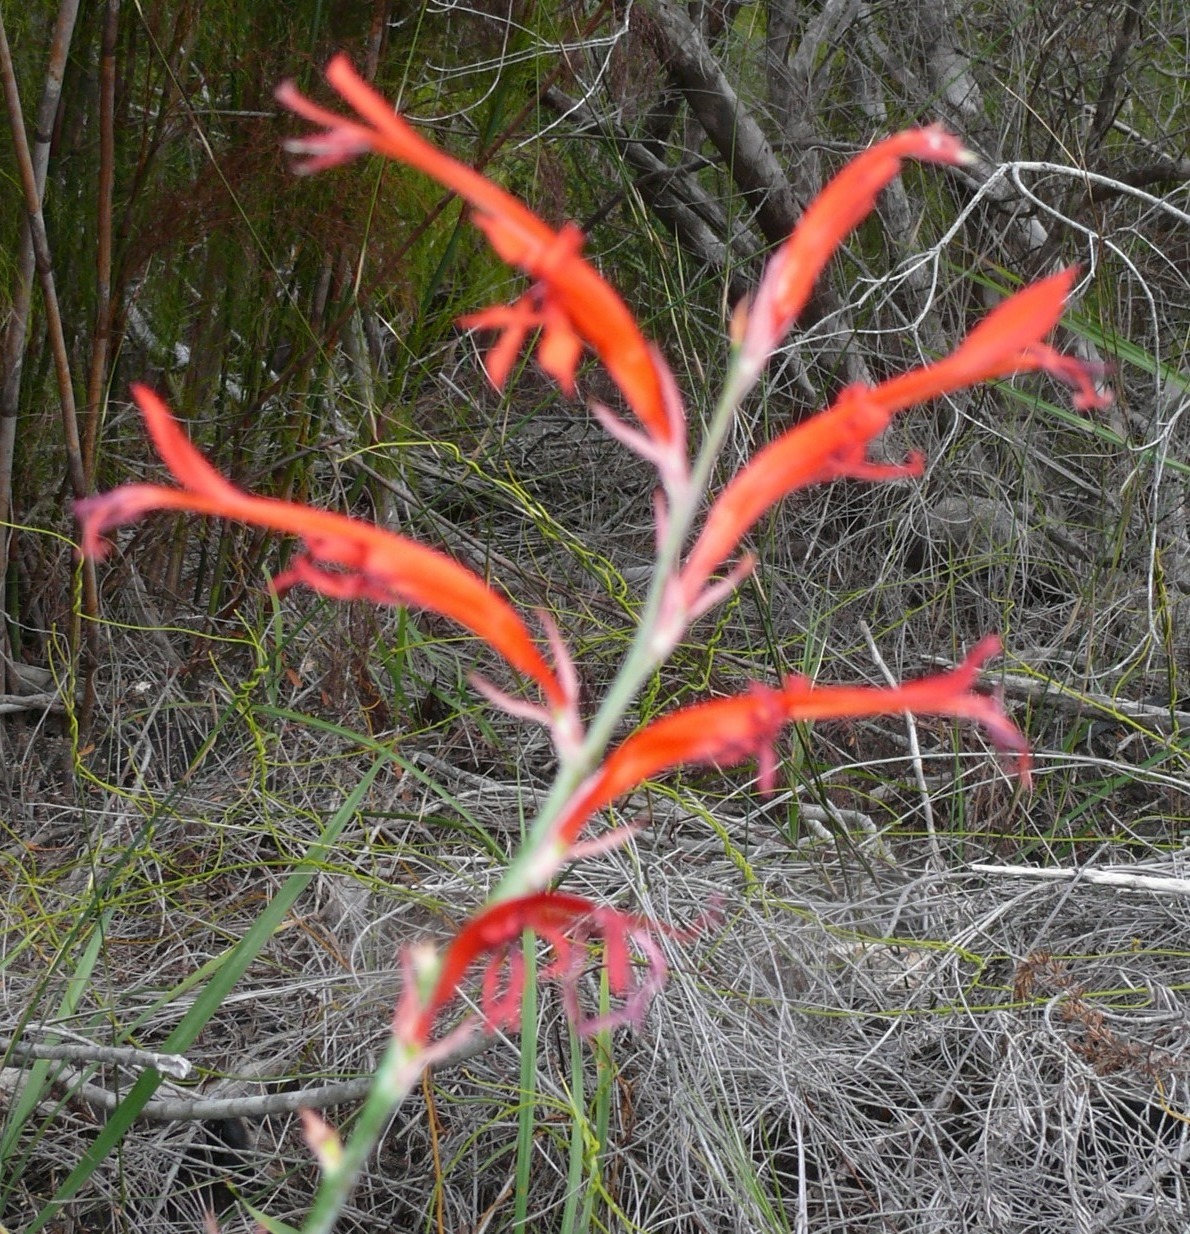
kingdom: Plantae
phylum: Tracheophyta
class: Liliopsida
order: Asparagales
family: Iridaceae
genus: Tritoniopsis
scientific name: Tritoniopsis caffra
